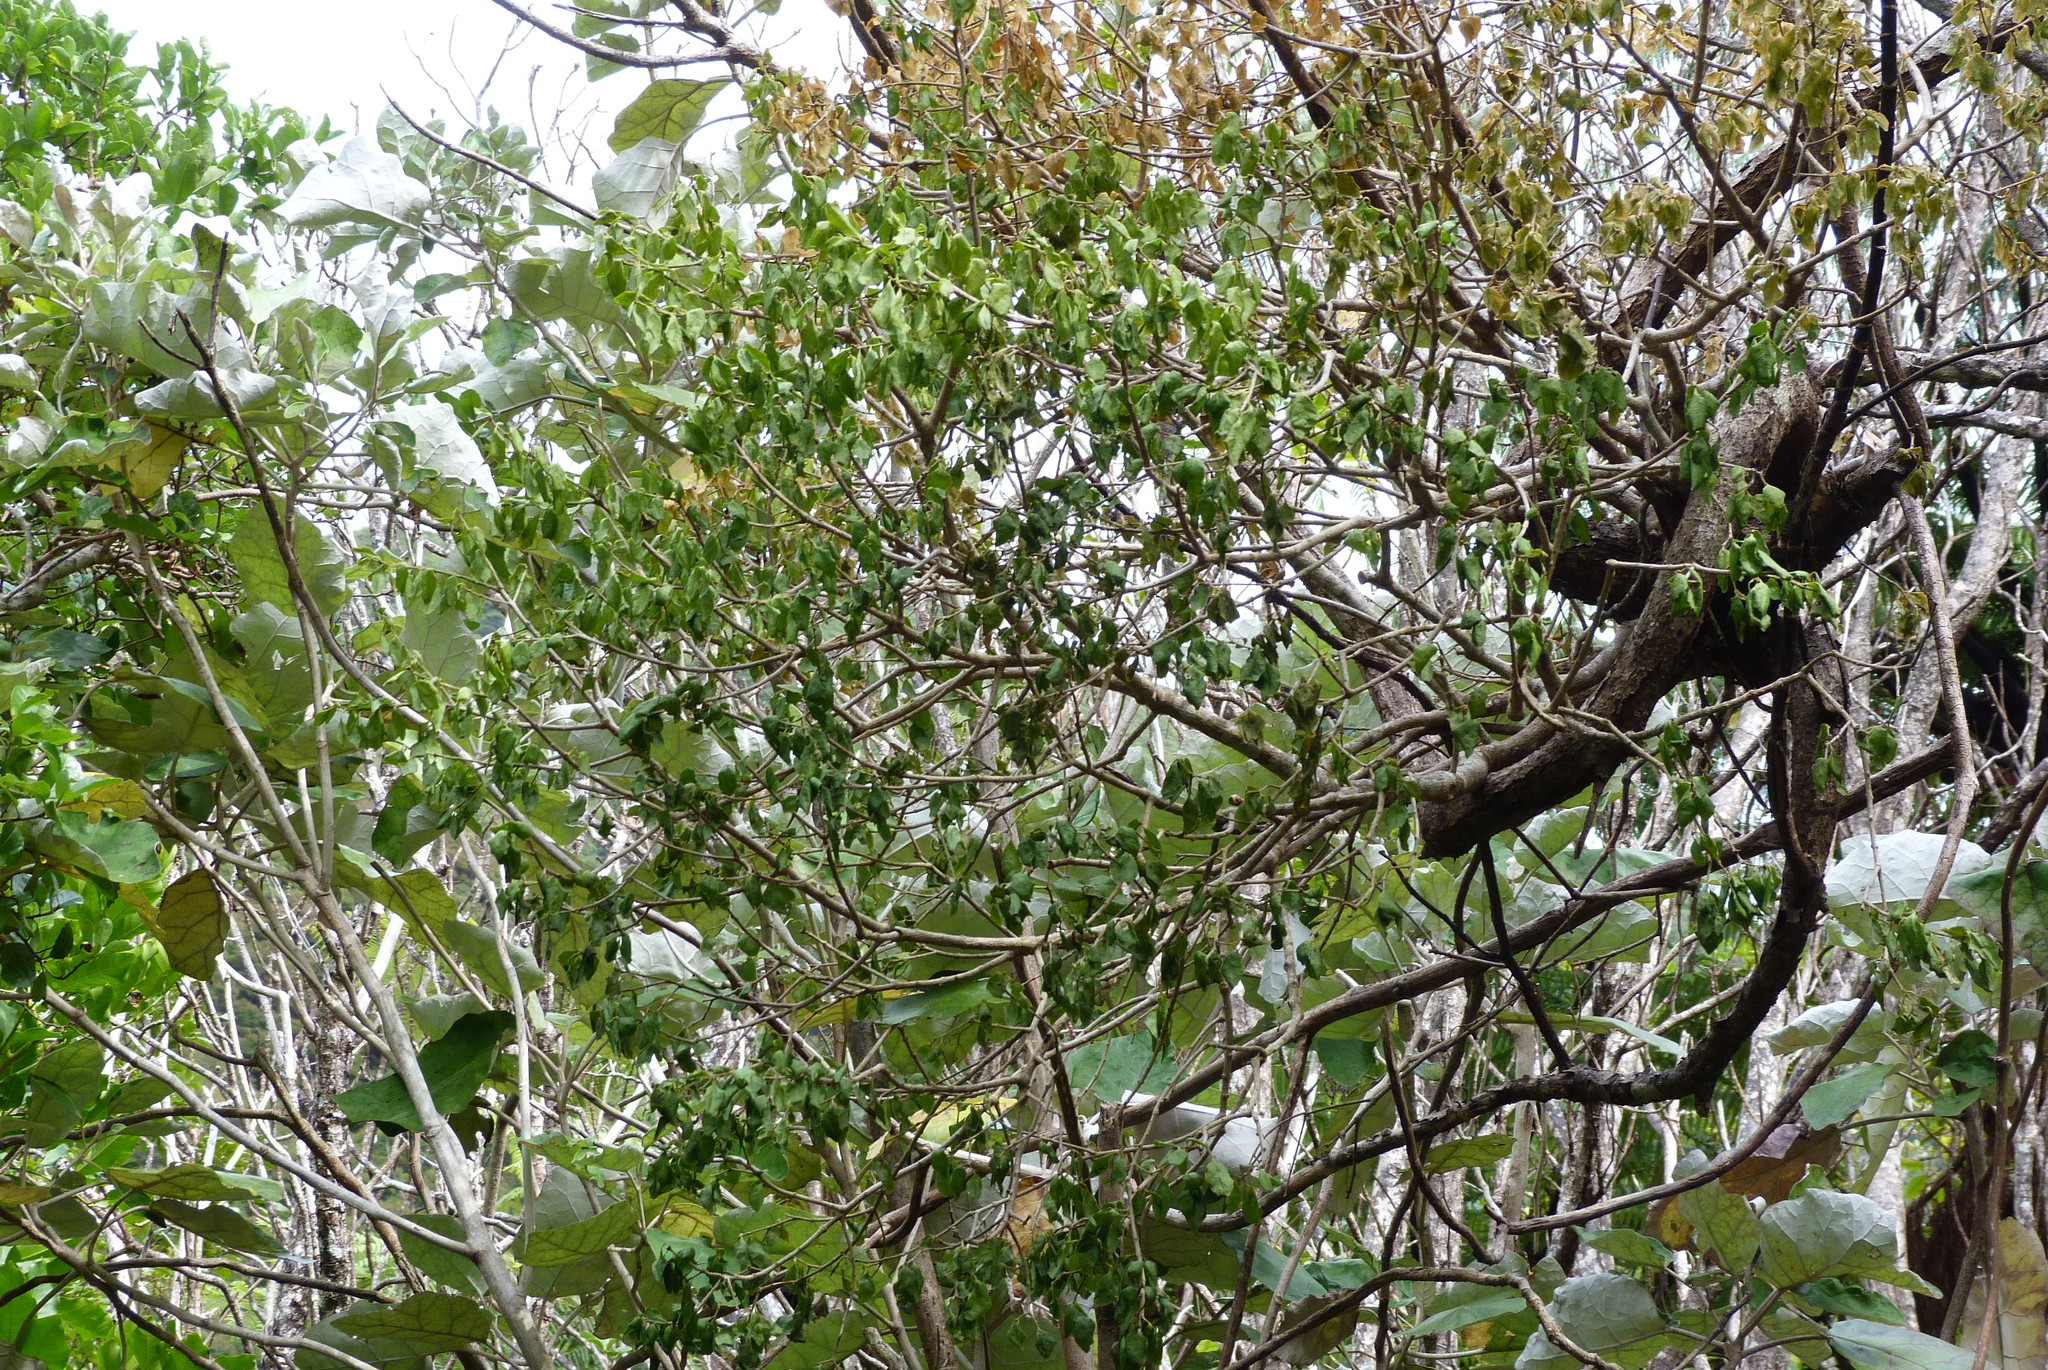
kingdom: Plantae
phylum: Tracheophyta
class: Magnoliopsida
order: Santalales
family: Loranthaceae
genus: Tupeia
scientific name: Tupeia antarctica
